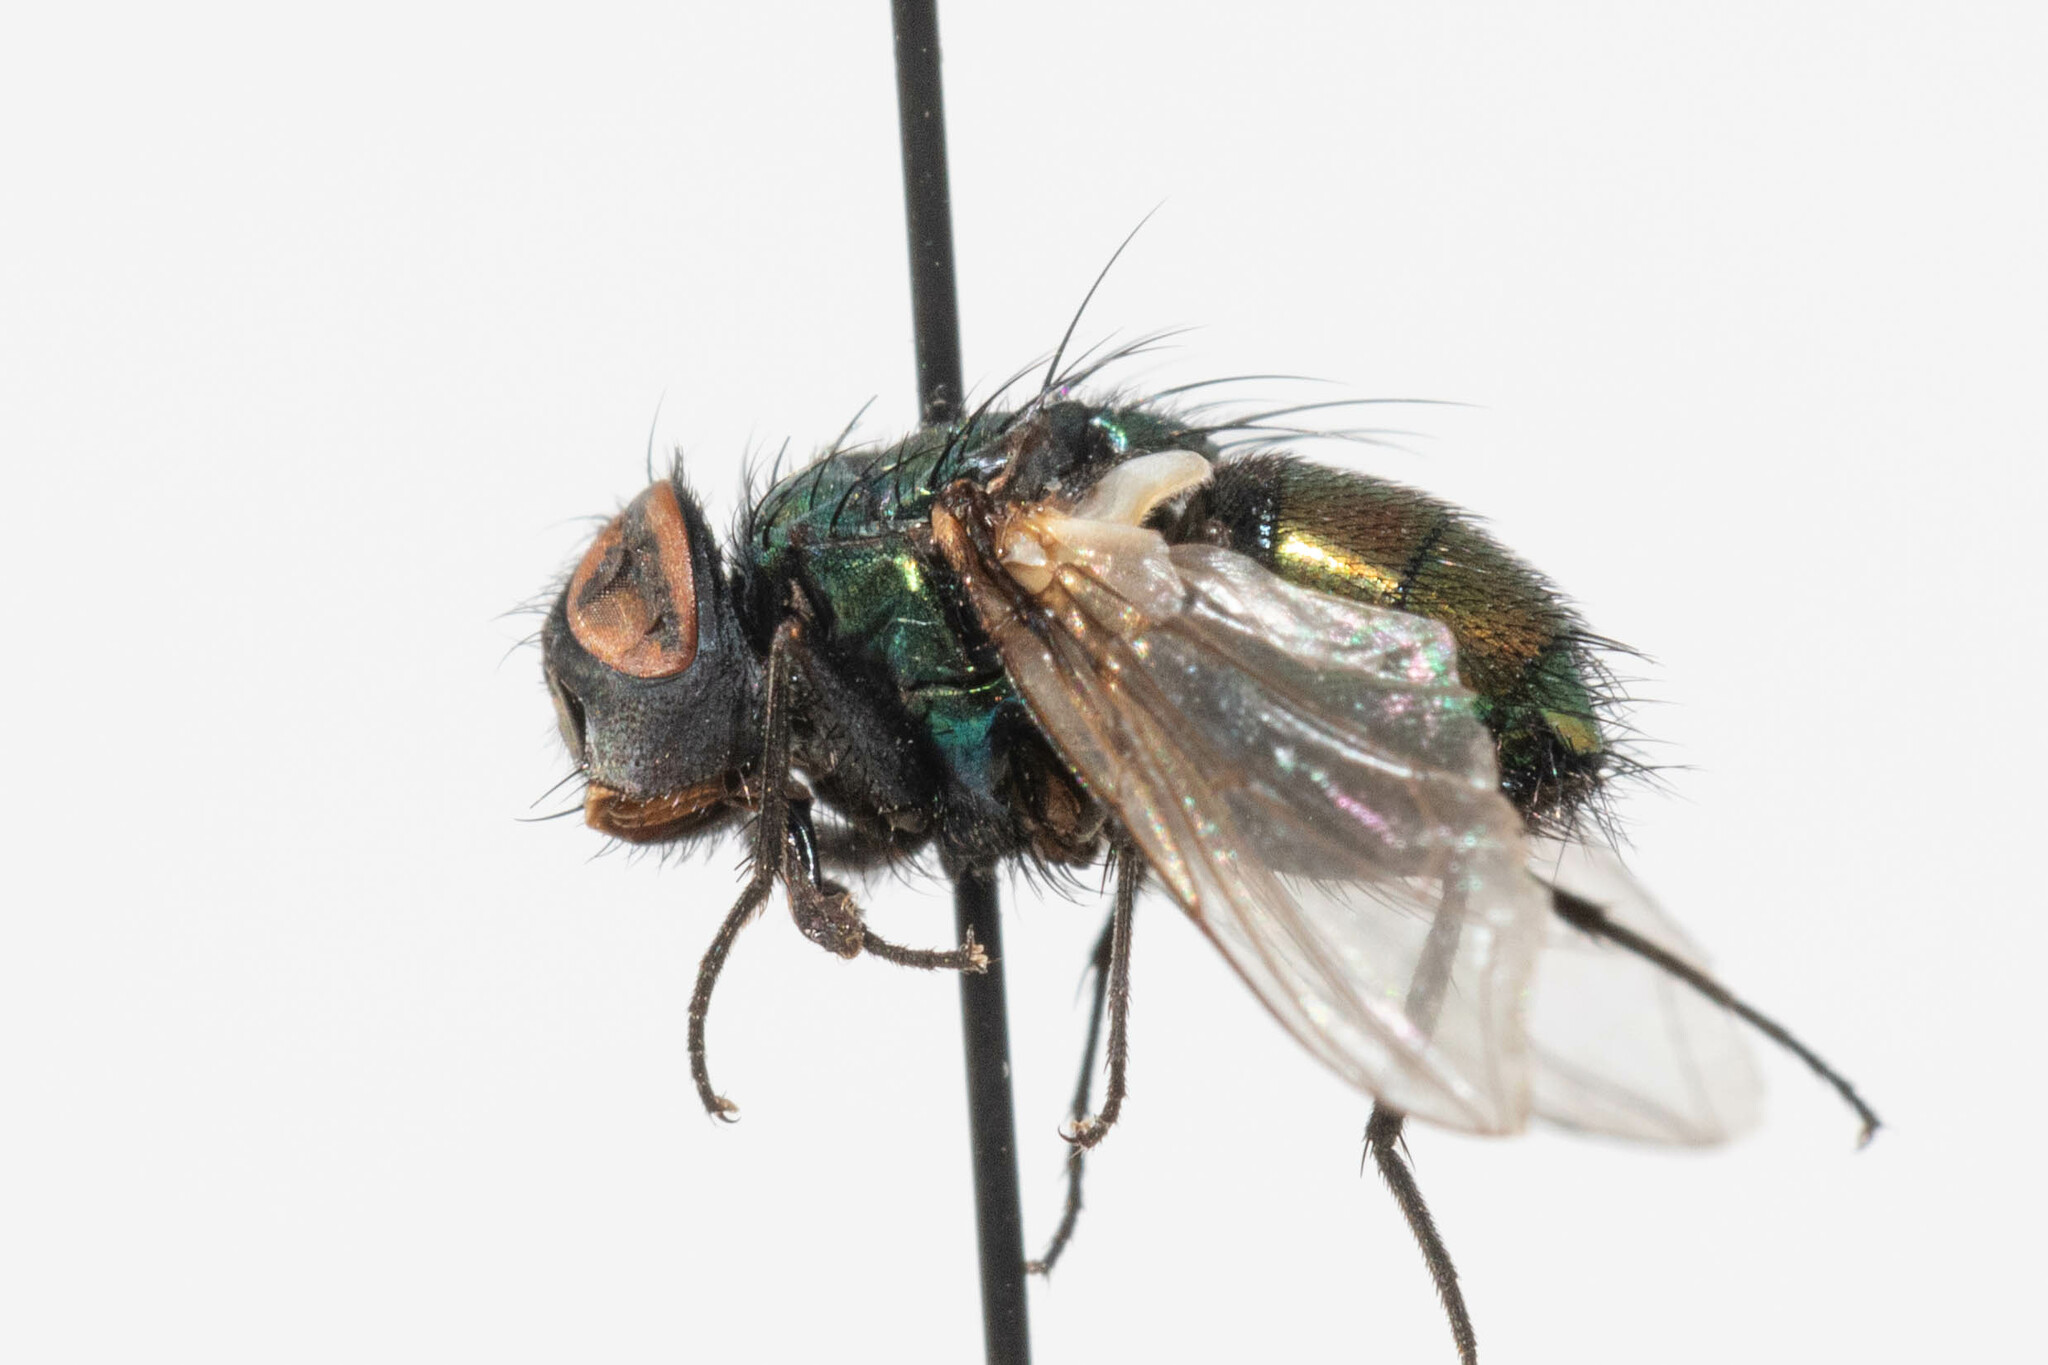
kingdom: Animalia
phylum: Arthropoda
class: Insecta
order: Diptera
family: Calliphoridae
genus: Lucilia
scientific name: Lucilia sericata
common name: Blow fly
